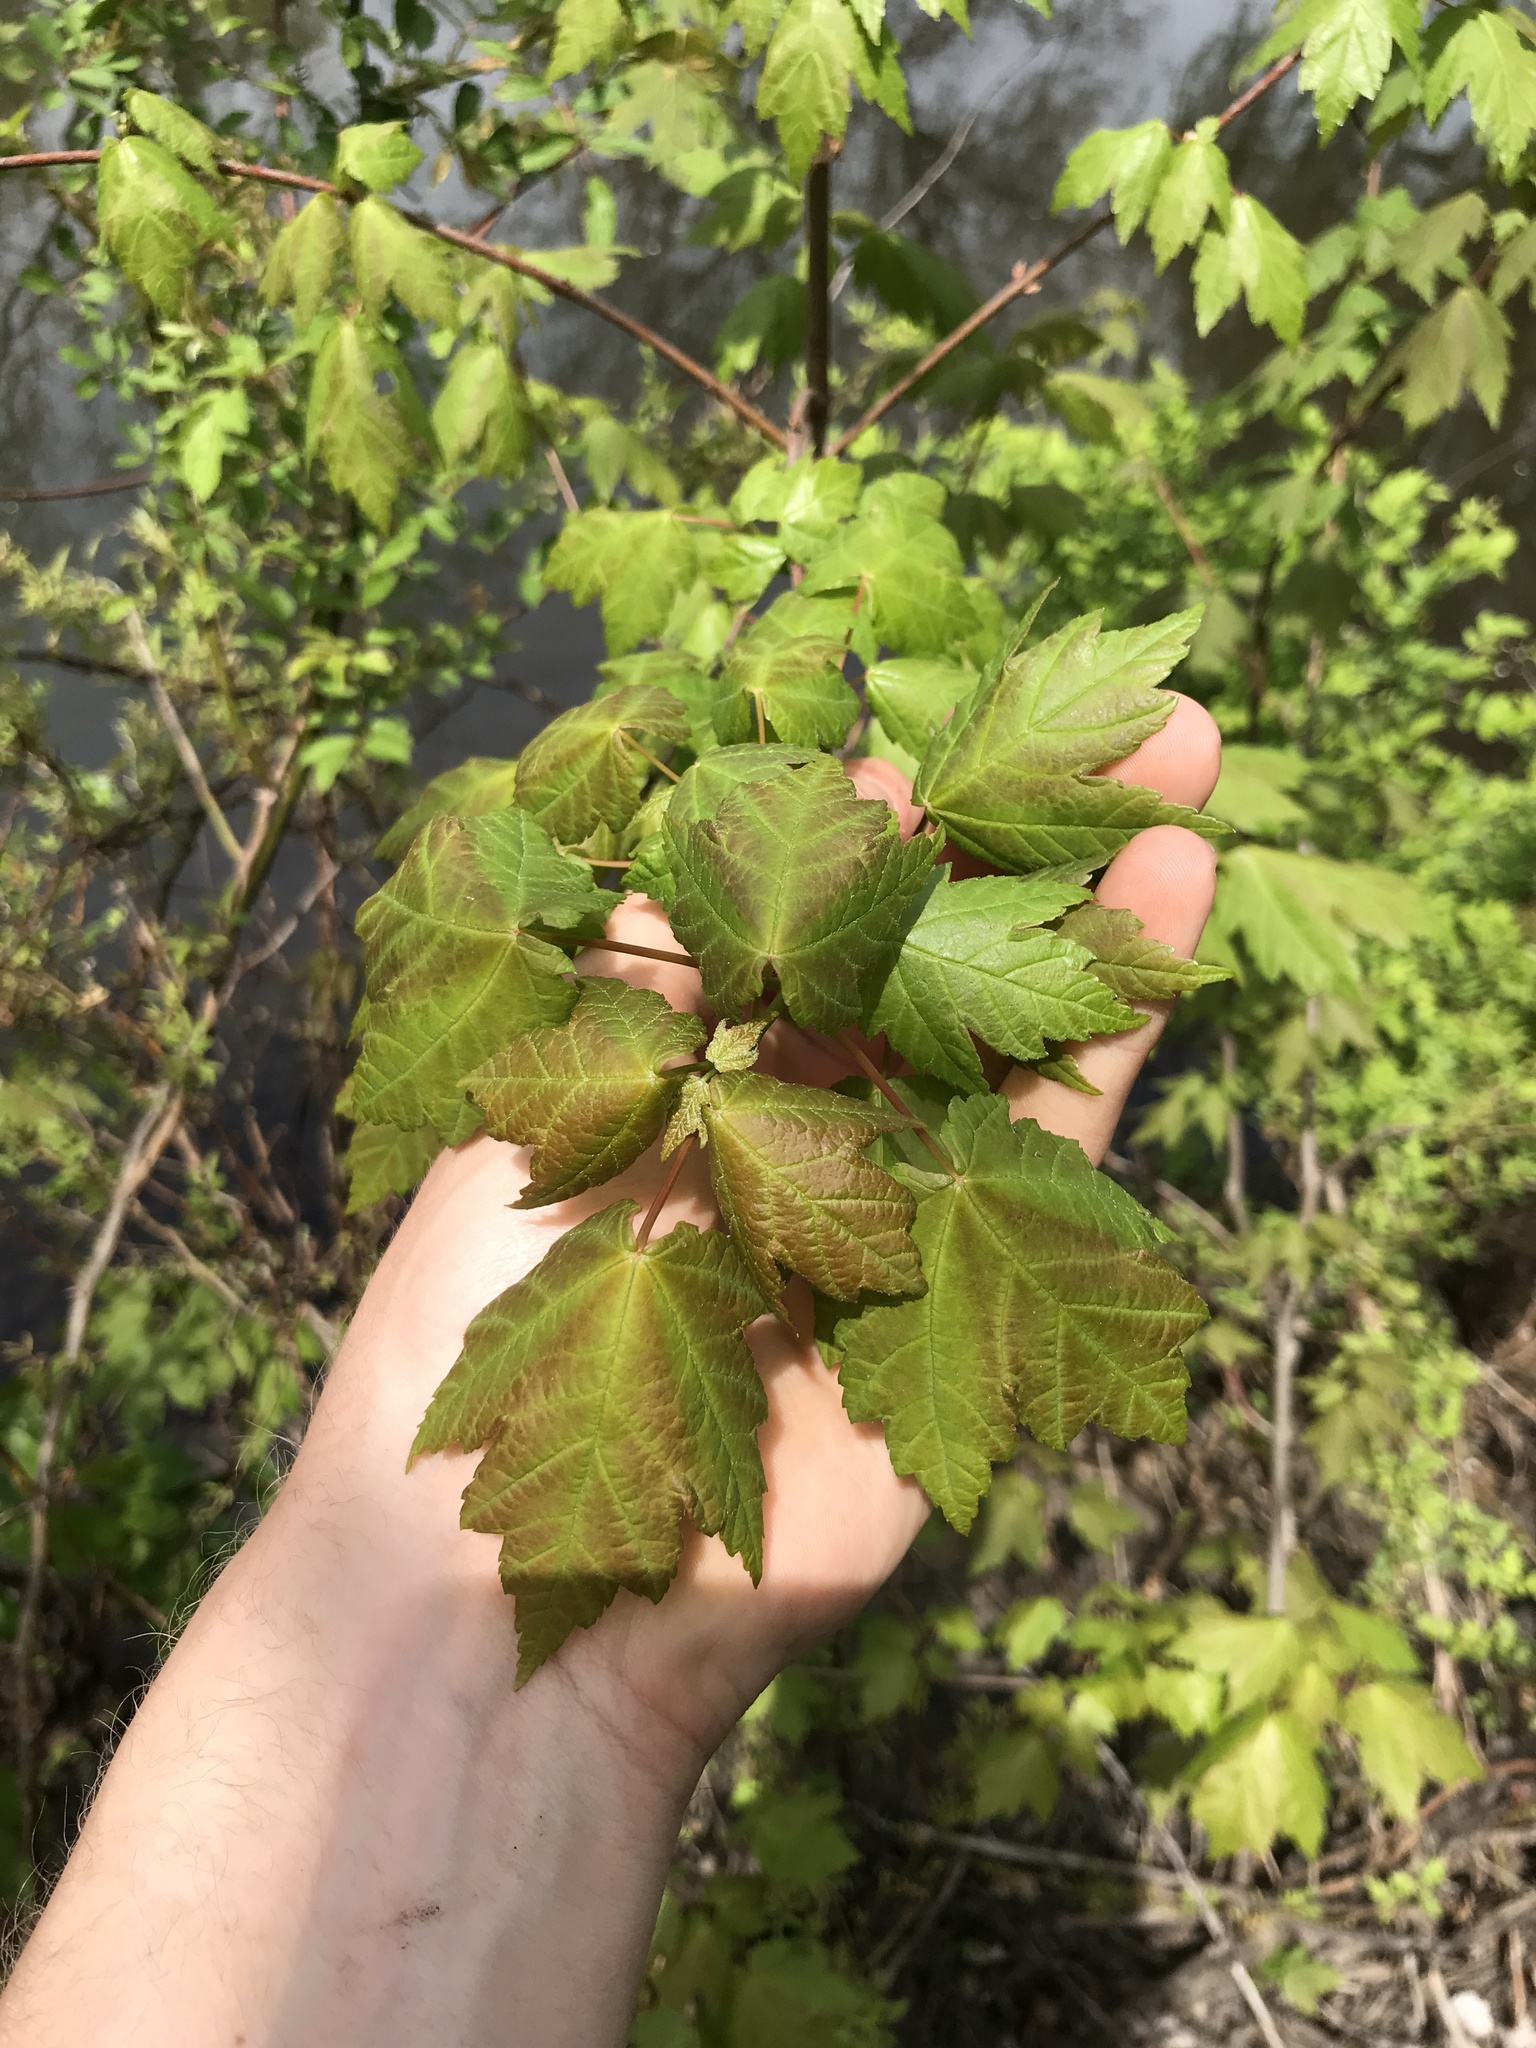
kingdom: Plantae
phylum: Tracheophyta
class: Magnoliopsida
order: Sapindales
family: Sapindaceae
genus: Acer
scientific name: Acer rubrum
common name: Red maple
